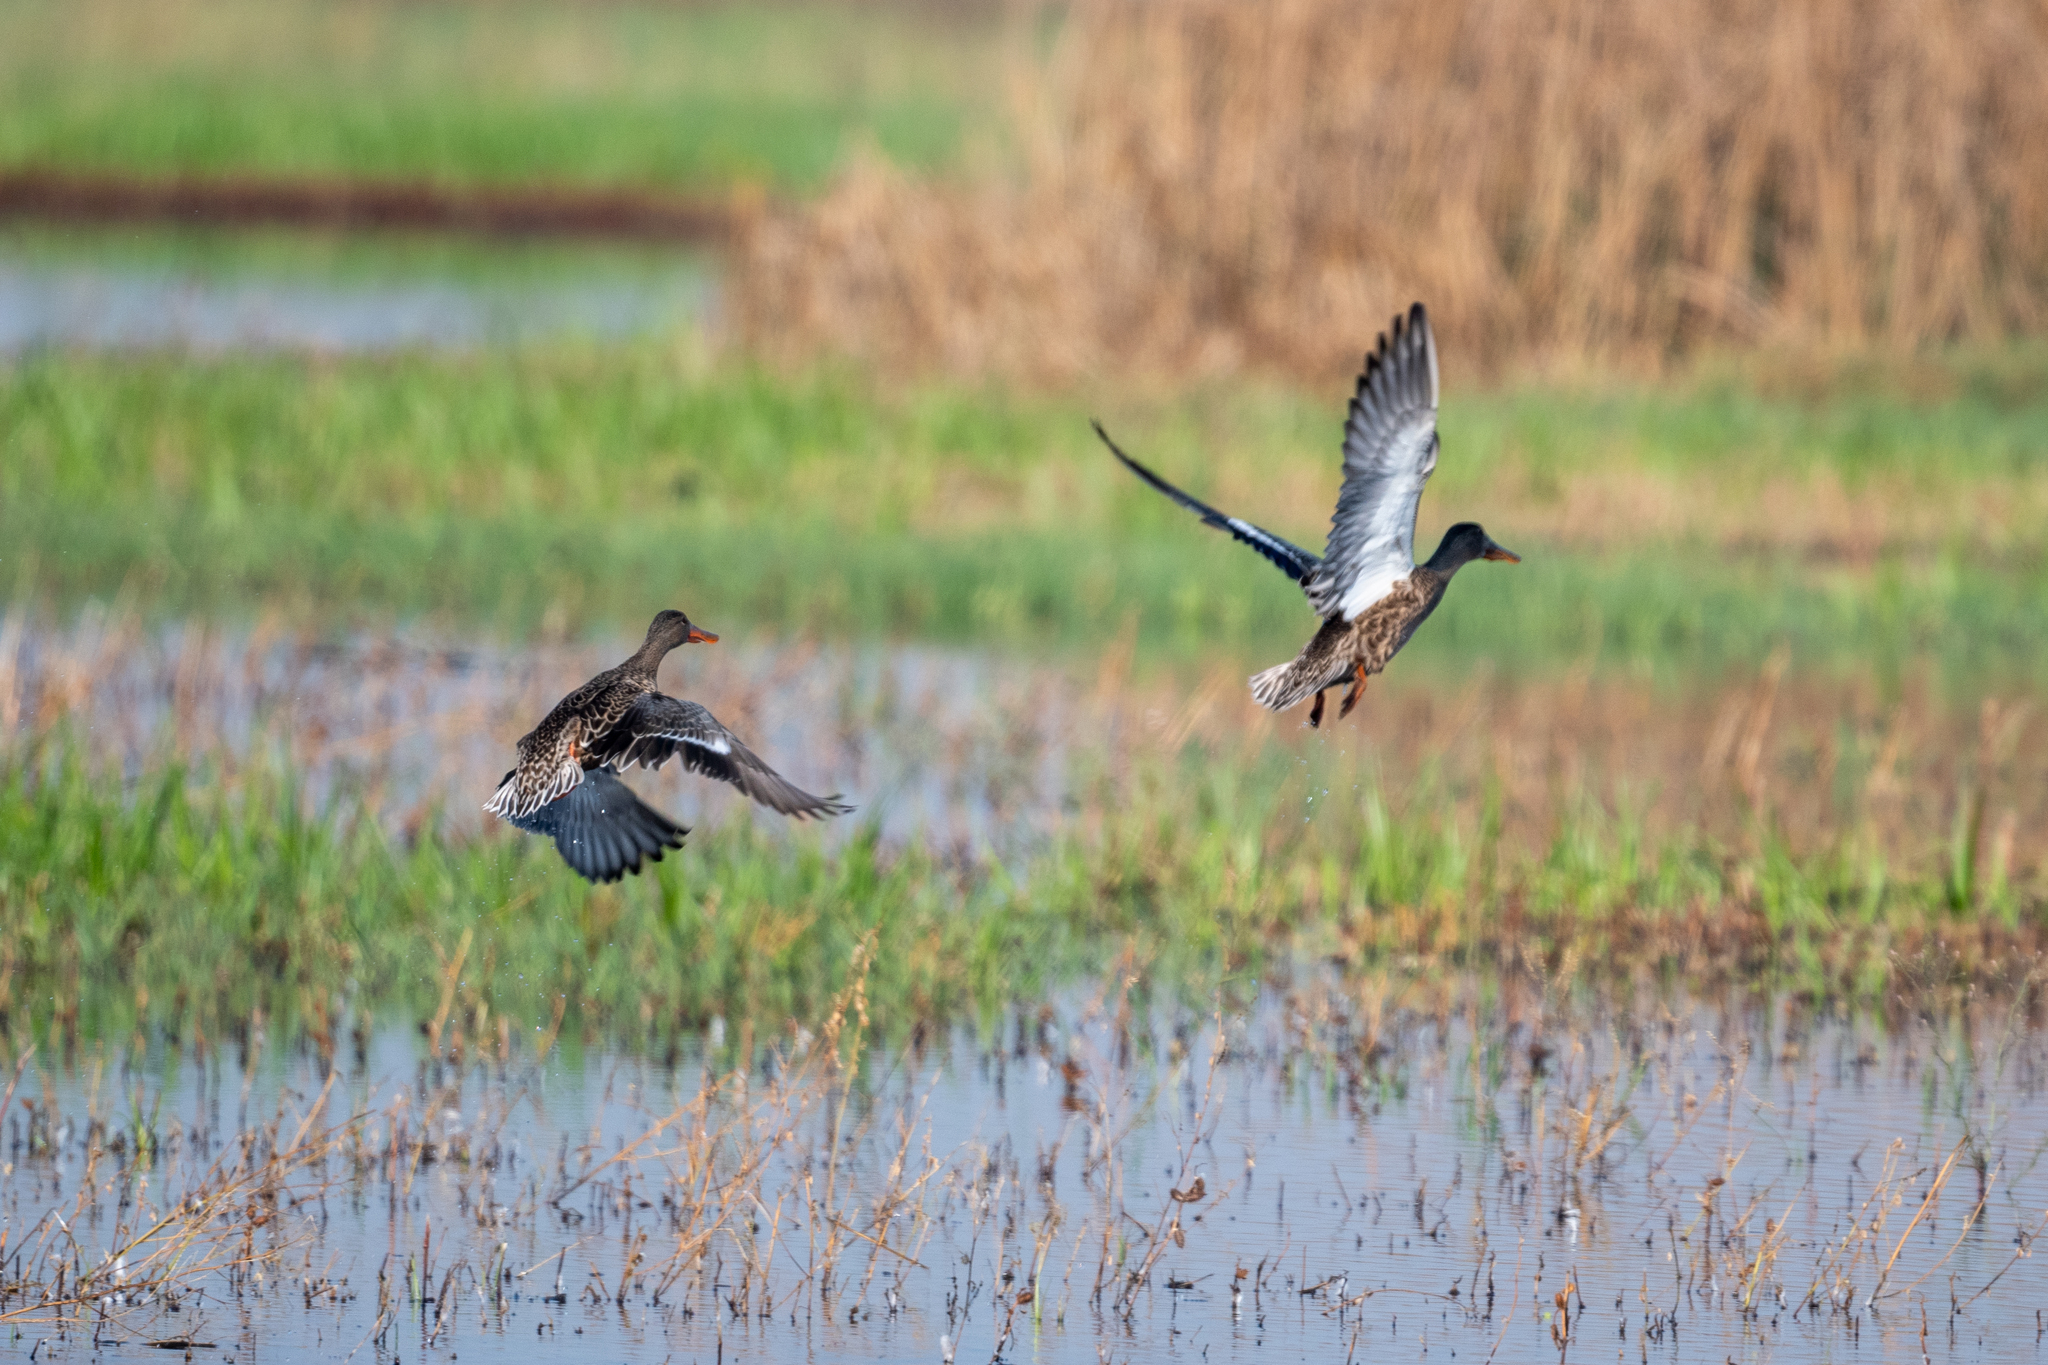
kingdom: Animalia
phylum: Chordata
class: Aves
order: Anseriformes
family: Anatidae
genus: Spatula
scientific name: Spatula clypeata
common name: Northern shoveler
